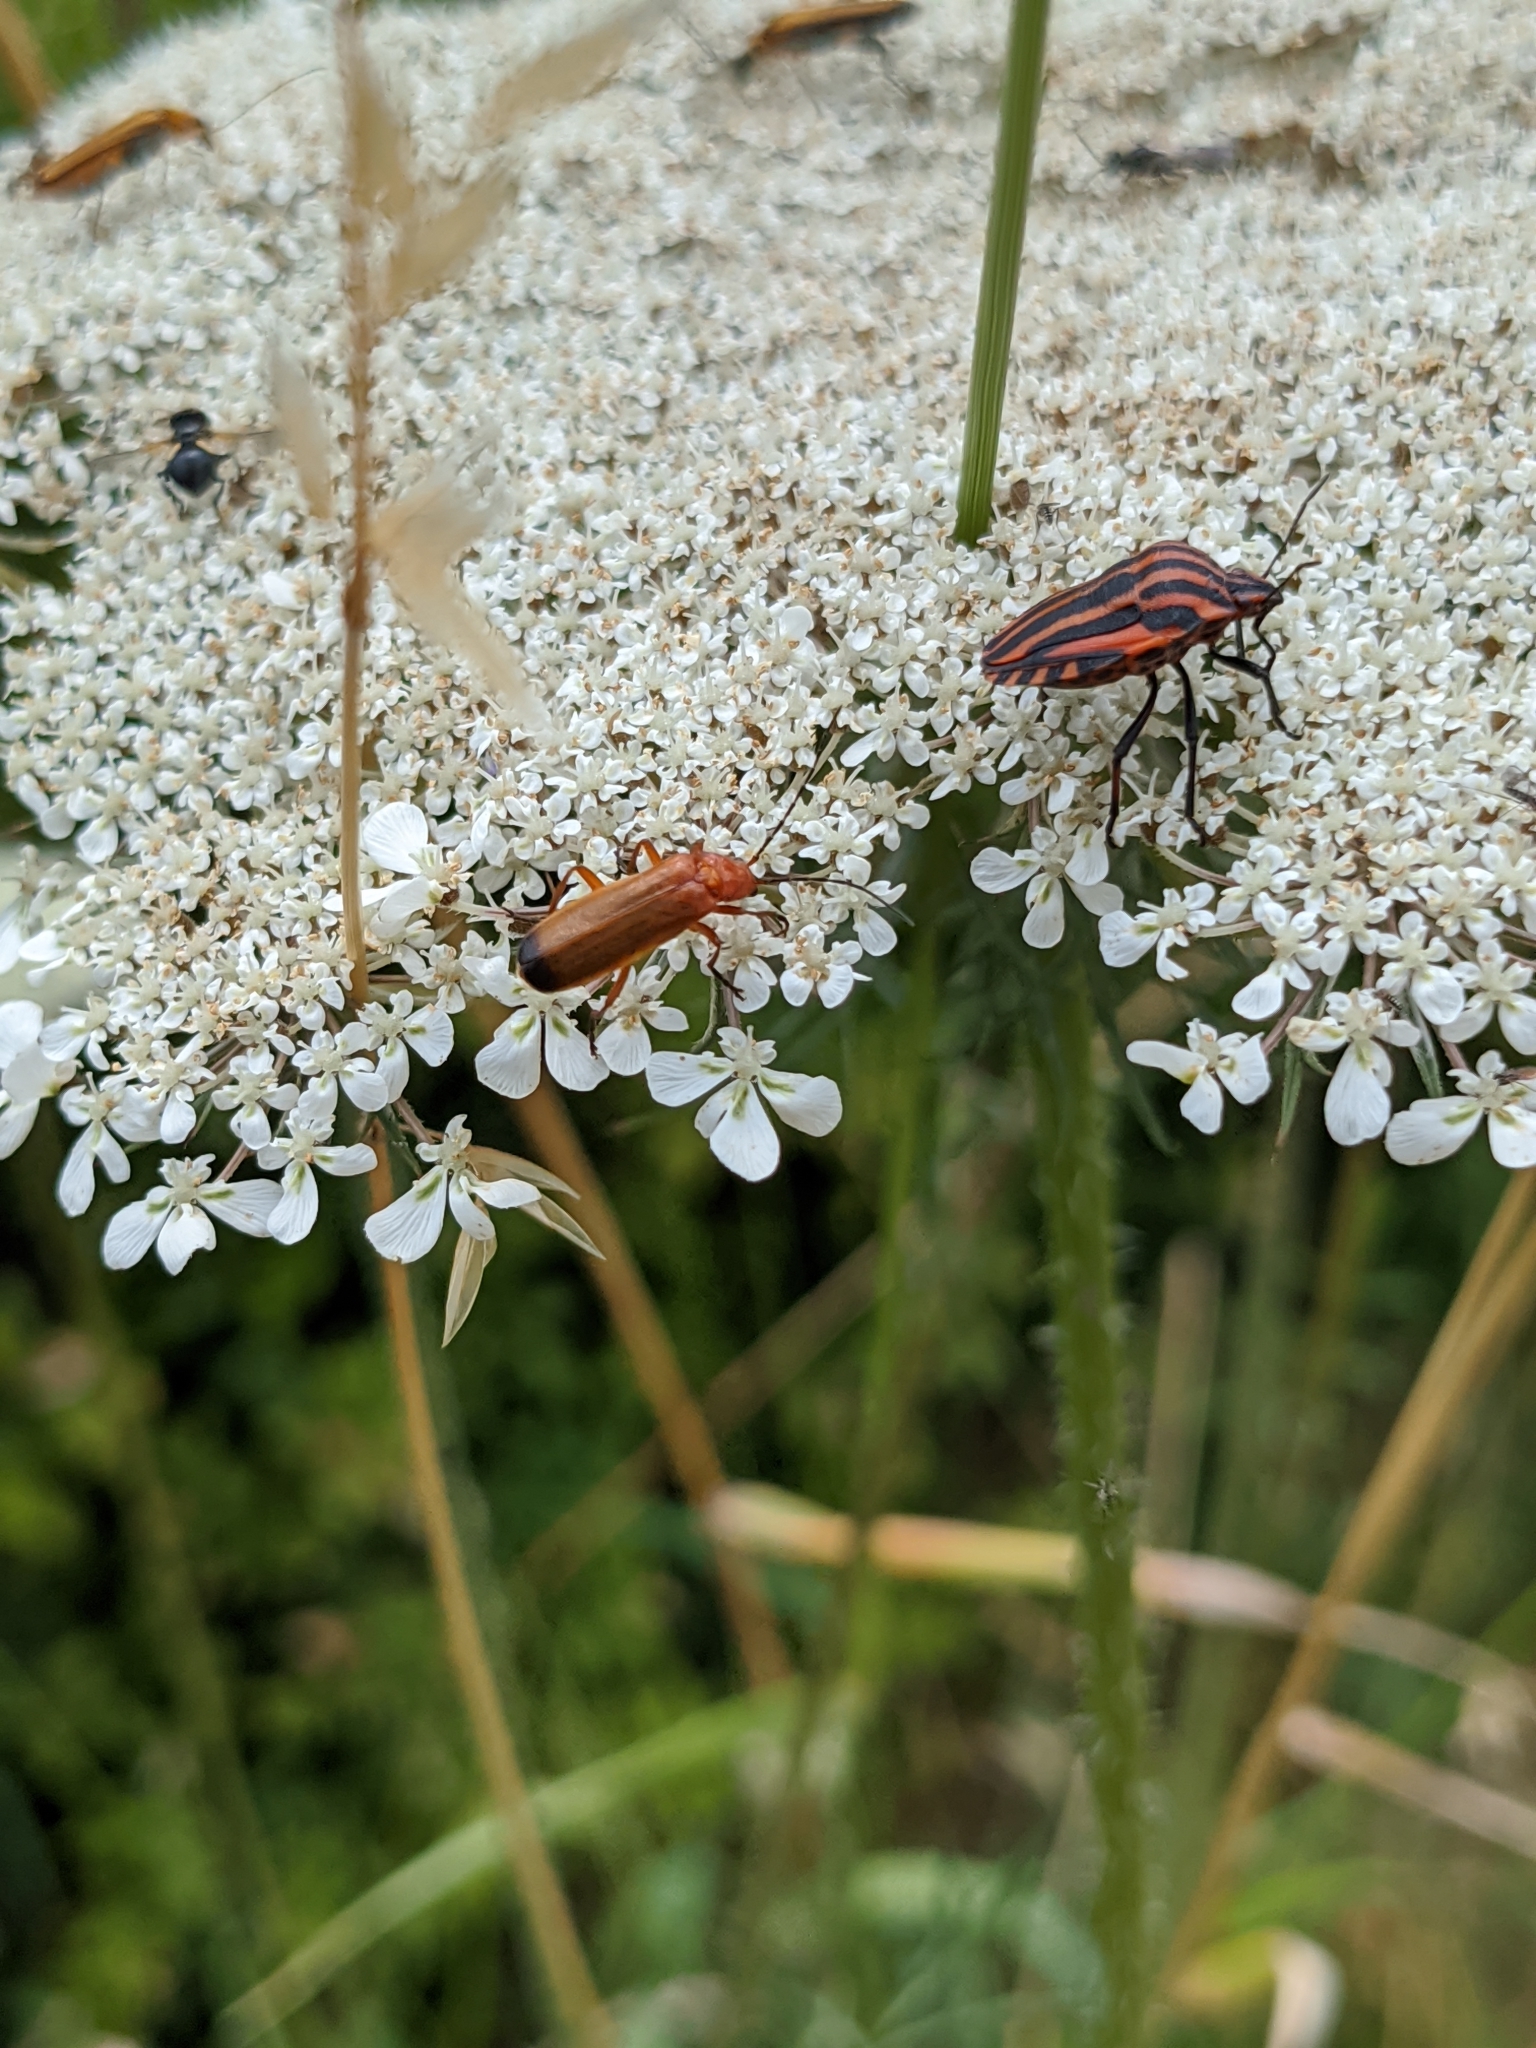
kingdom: Animalia
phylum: Arthropoda
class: Insecta
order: Hemiptera
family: Pentatomidae
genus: Graphosoma
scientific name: Graphosoma italicum
